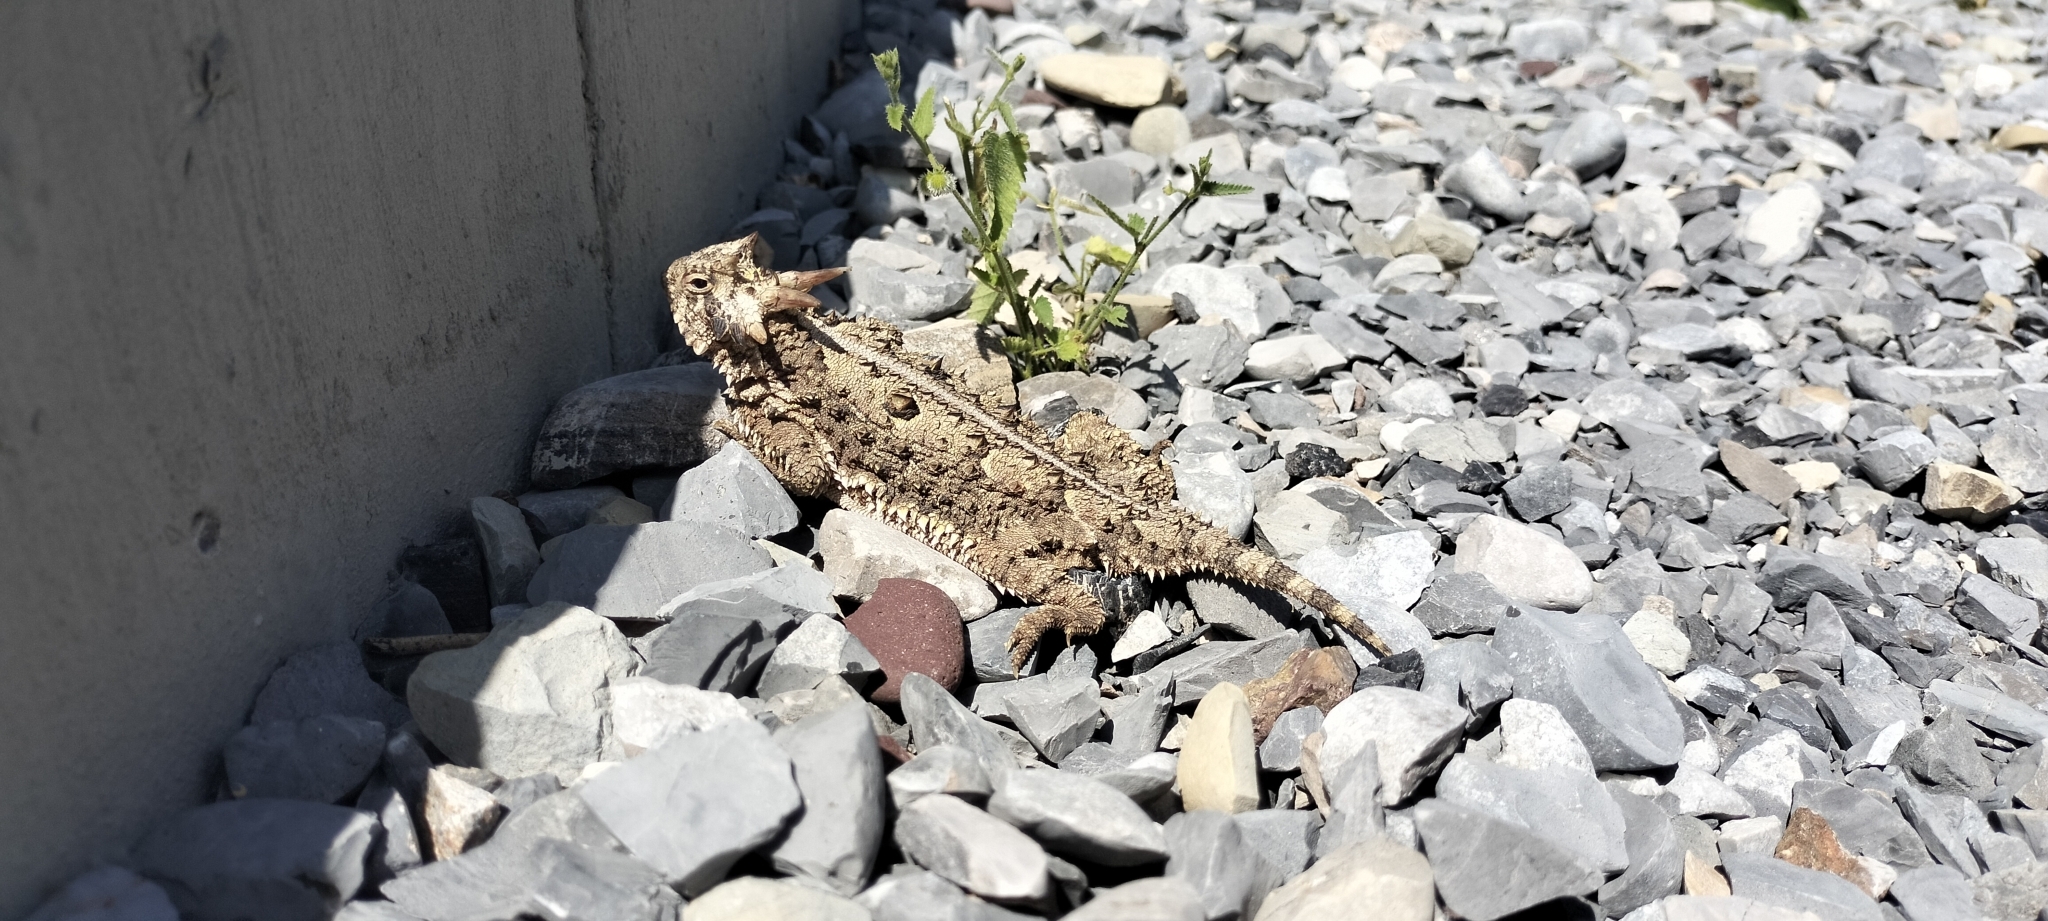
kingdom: Animalia
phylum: Chordata
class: Squamata
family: Phrynosomatidae
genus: Phrynosoma
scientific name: Phrynosoma cornutum
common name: Texas horned lizard
